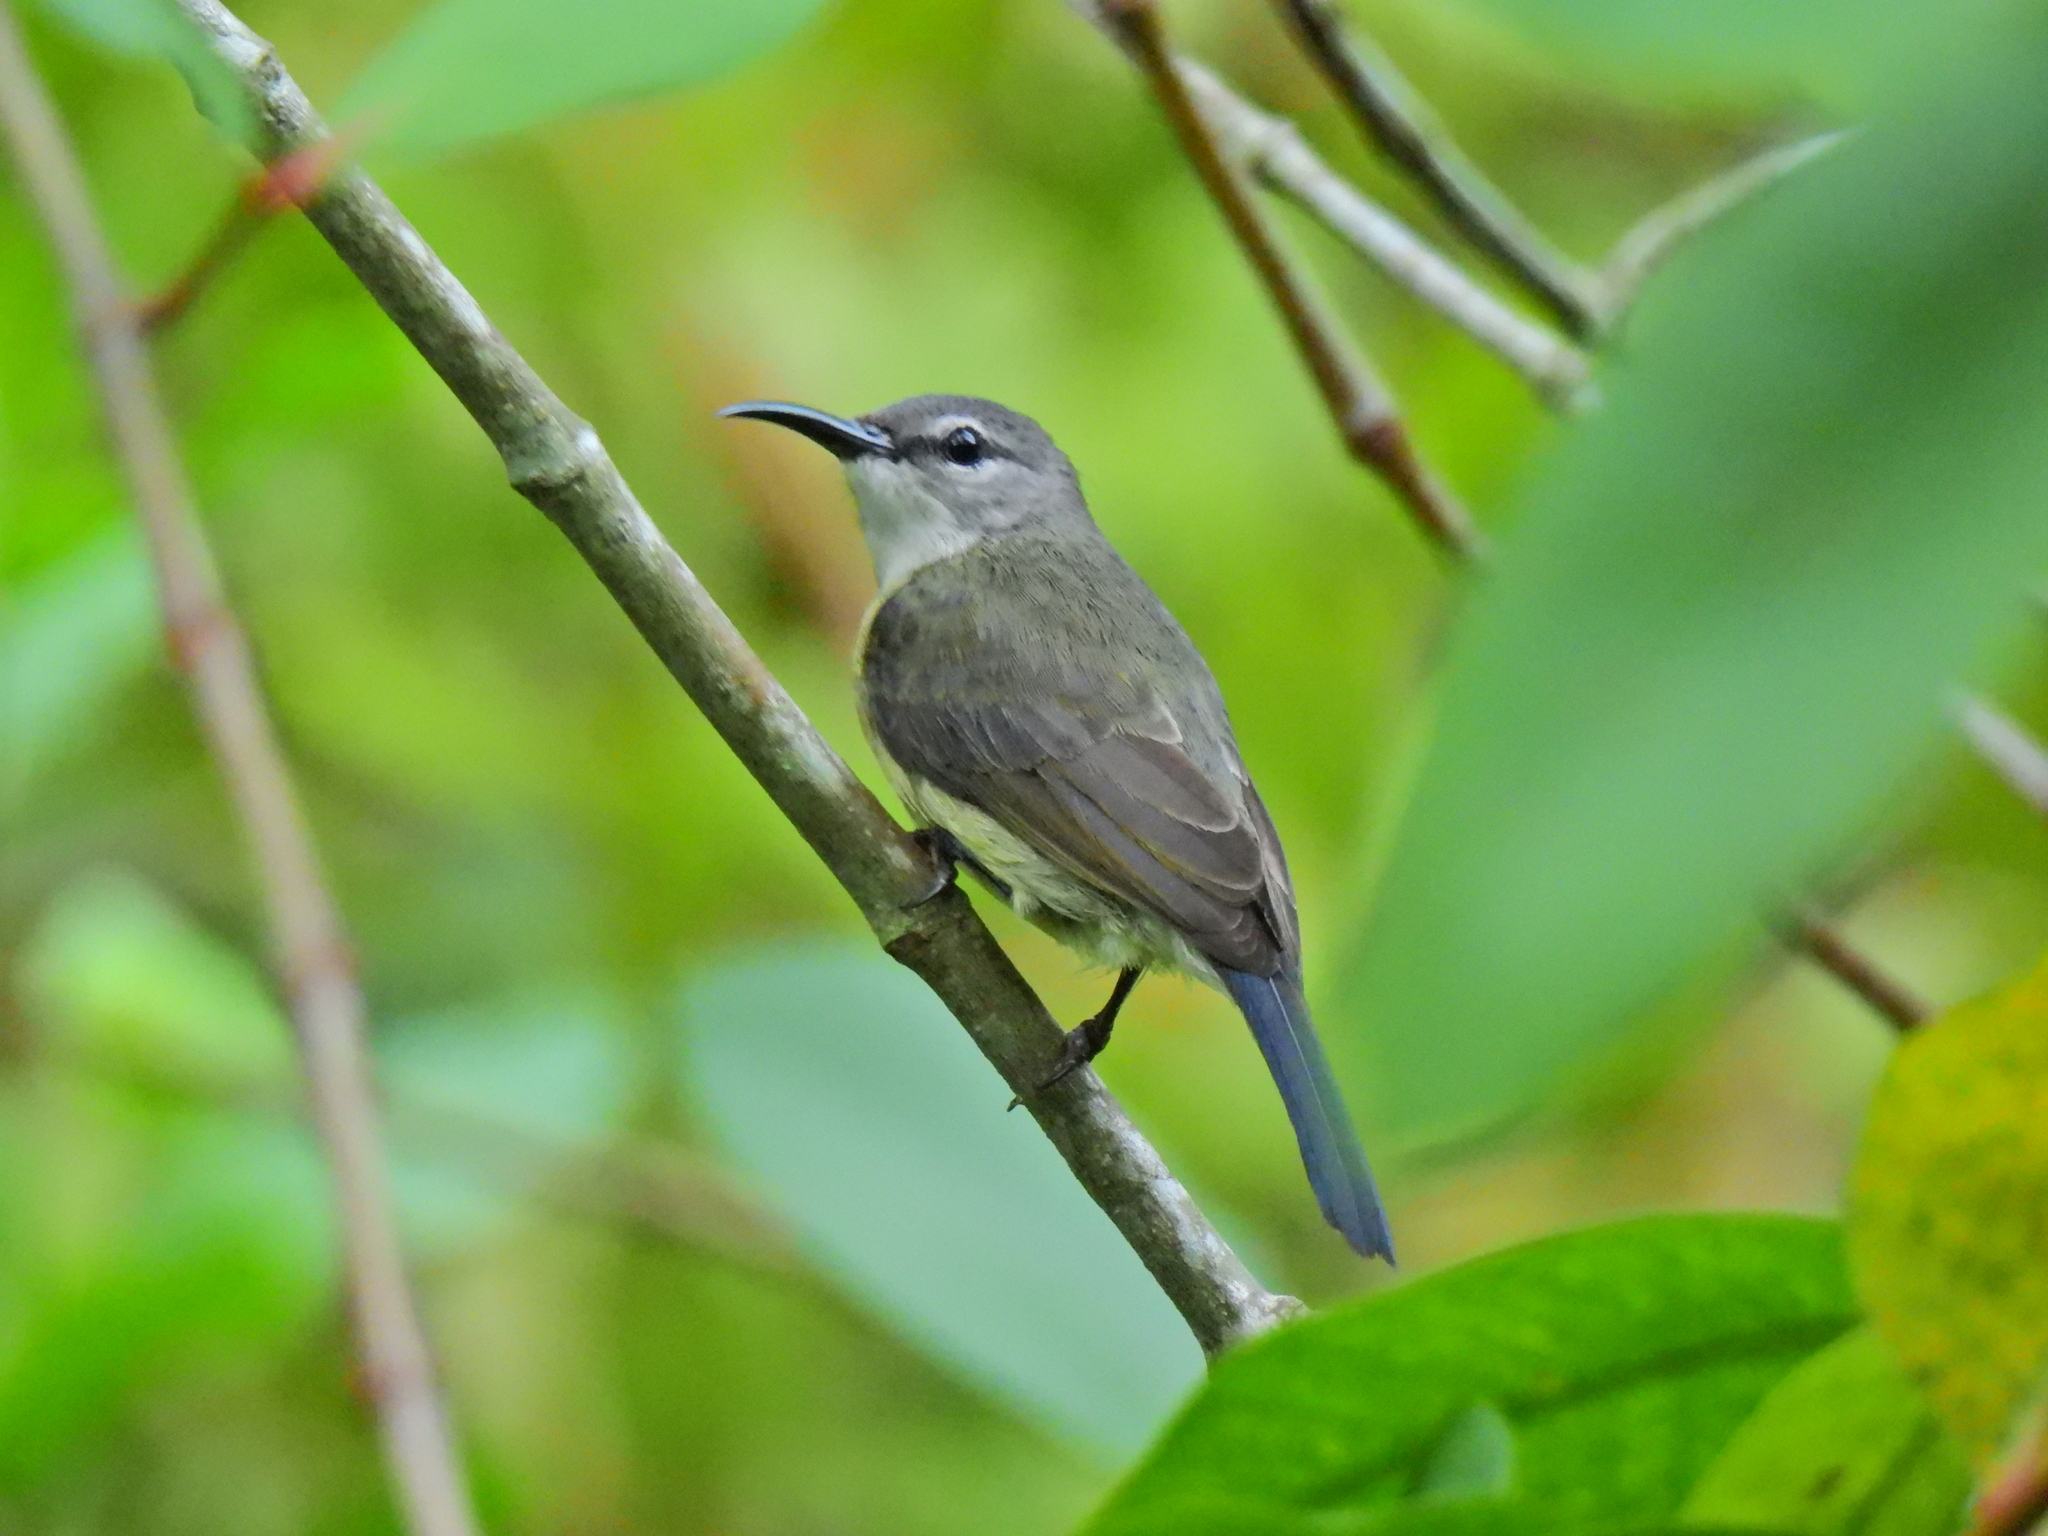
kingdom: Animalia
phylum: Chordata
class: Aves
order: Passeriformes
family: Nectariniidae
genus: Leptocoma
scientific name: Leptocoma calcostetha
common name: Copper-throated sunbird
